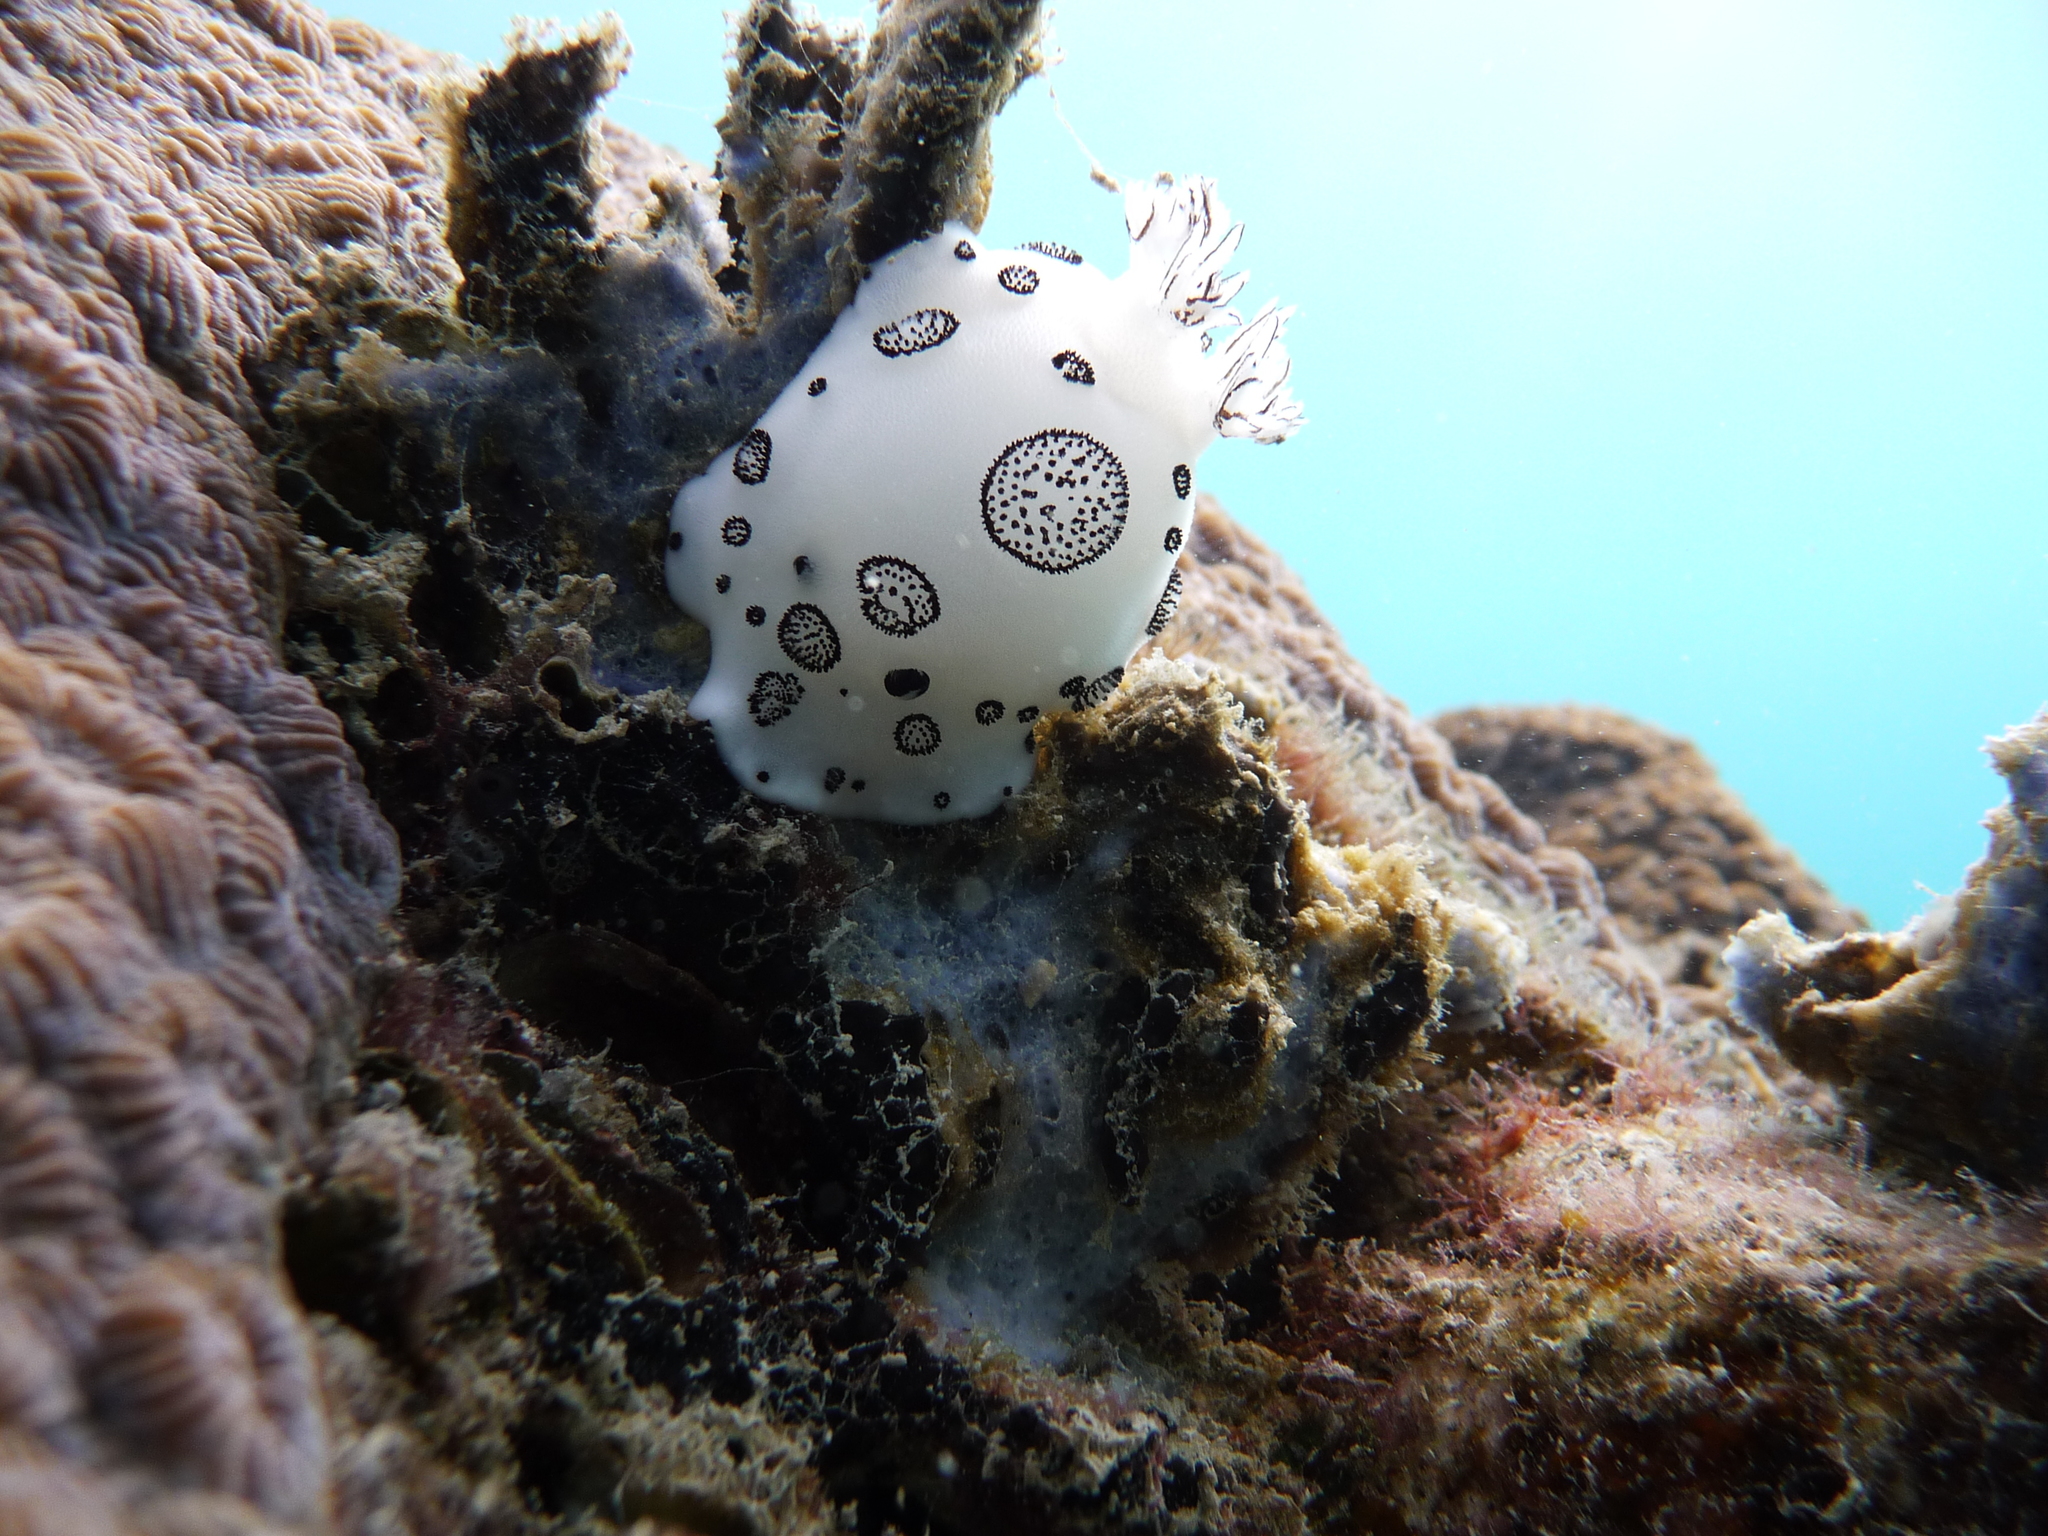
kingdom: Animalia
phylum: Mollusca
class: Gastropoda
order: Nudibranchia
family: Discodorididae
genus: Jorunna
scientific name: Jorunna funebris
